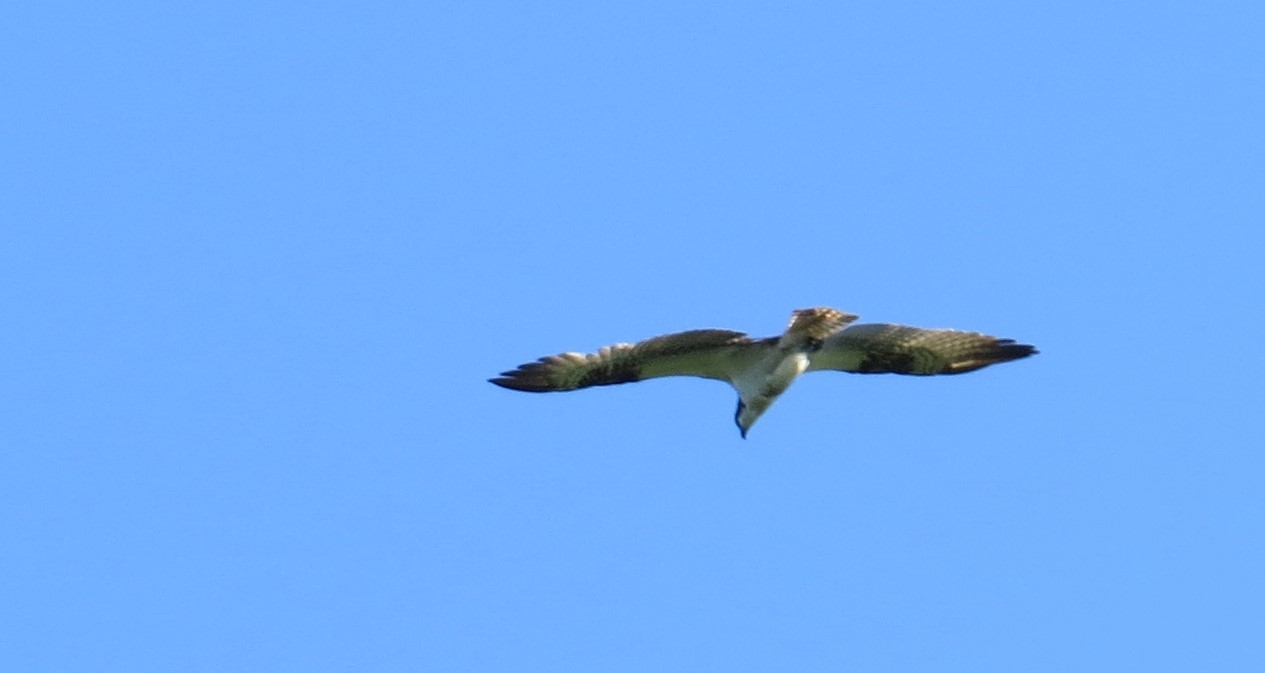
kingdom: Animalia
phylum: Chordata
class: Aves
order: Accipitriformes
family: Pandionidae
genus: Pandion
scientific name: Pandion haliaetus
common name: Osprey
